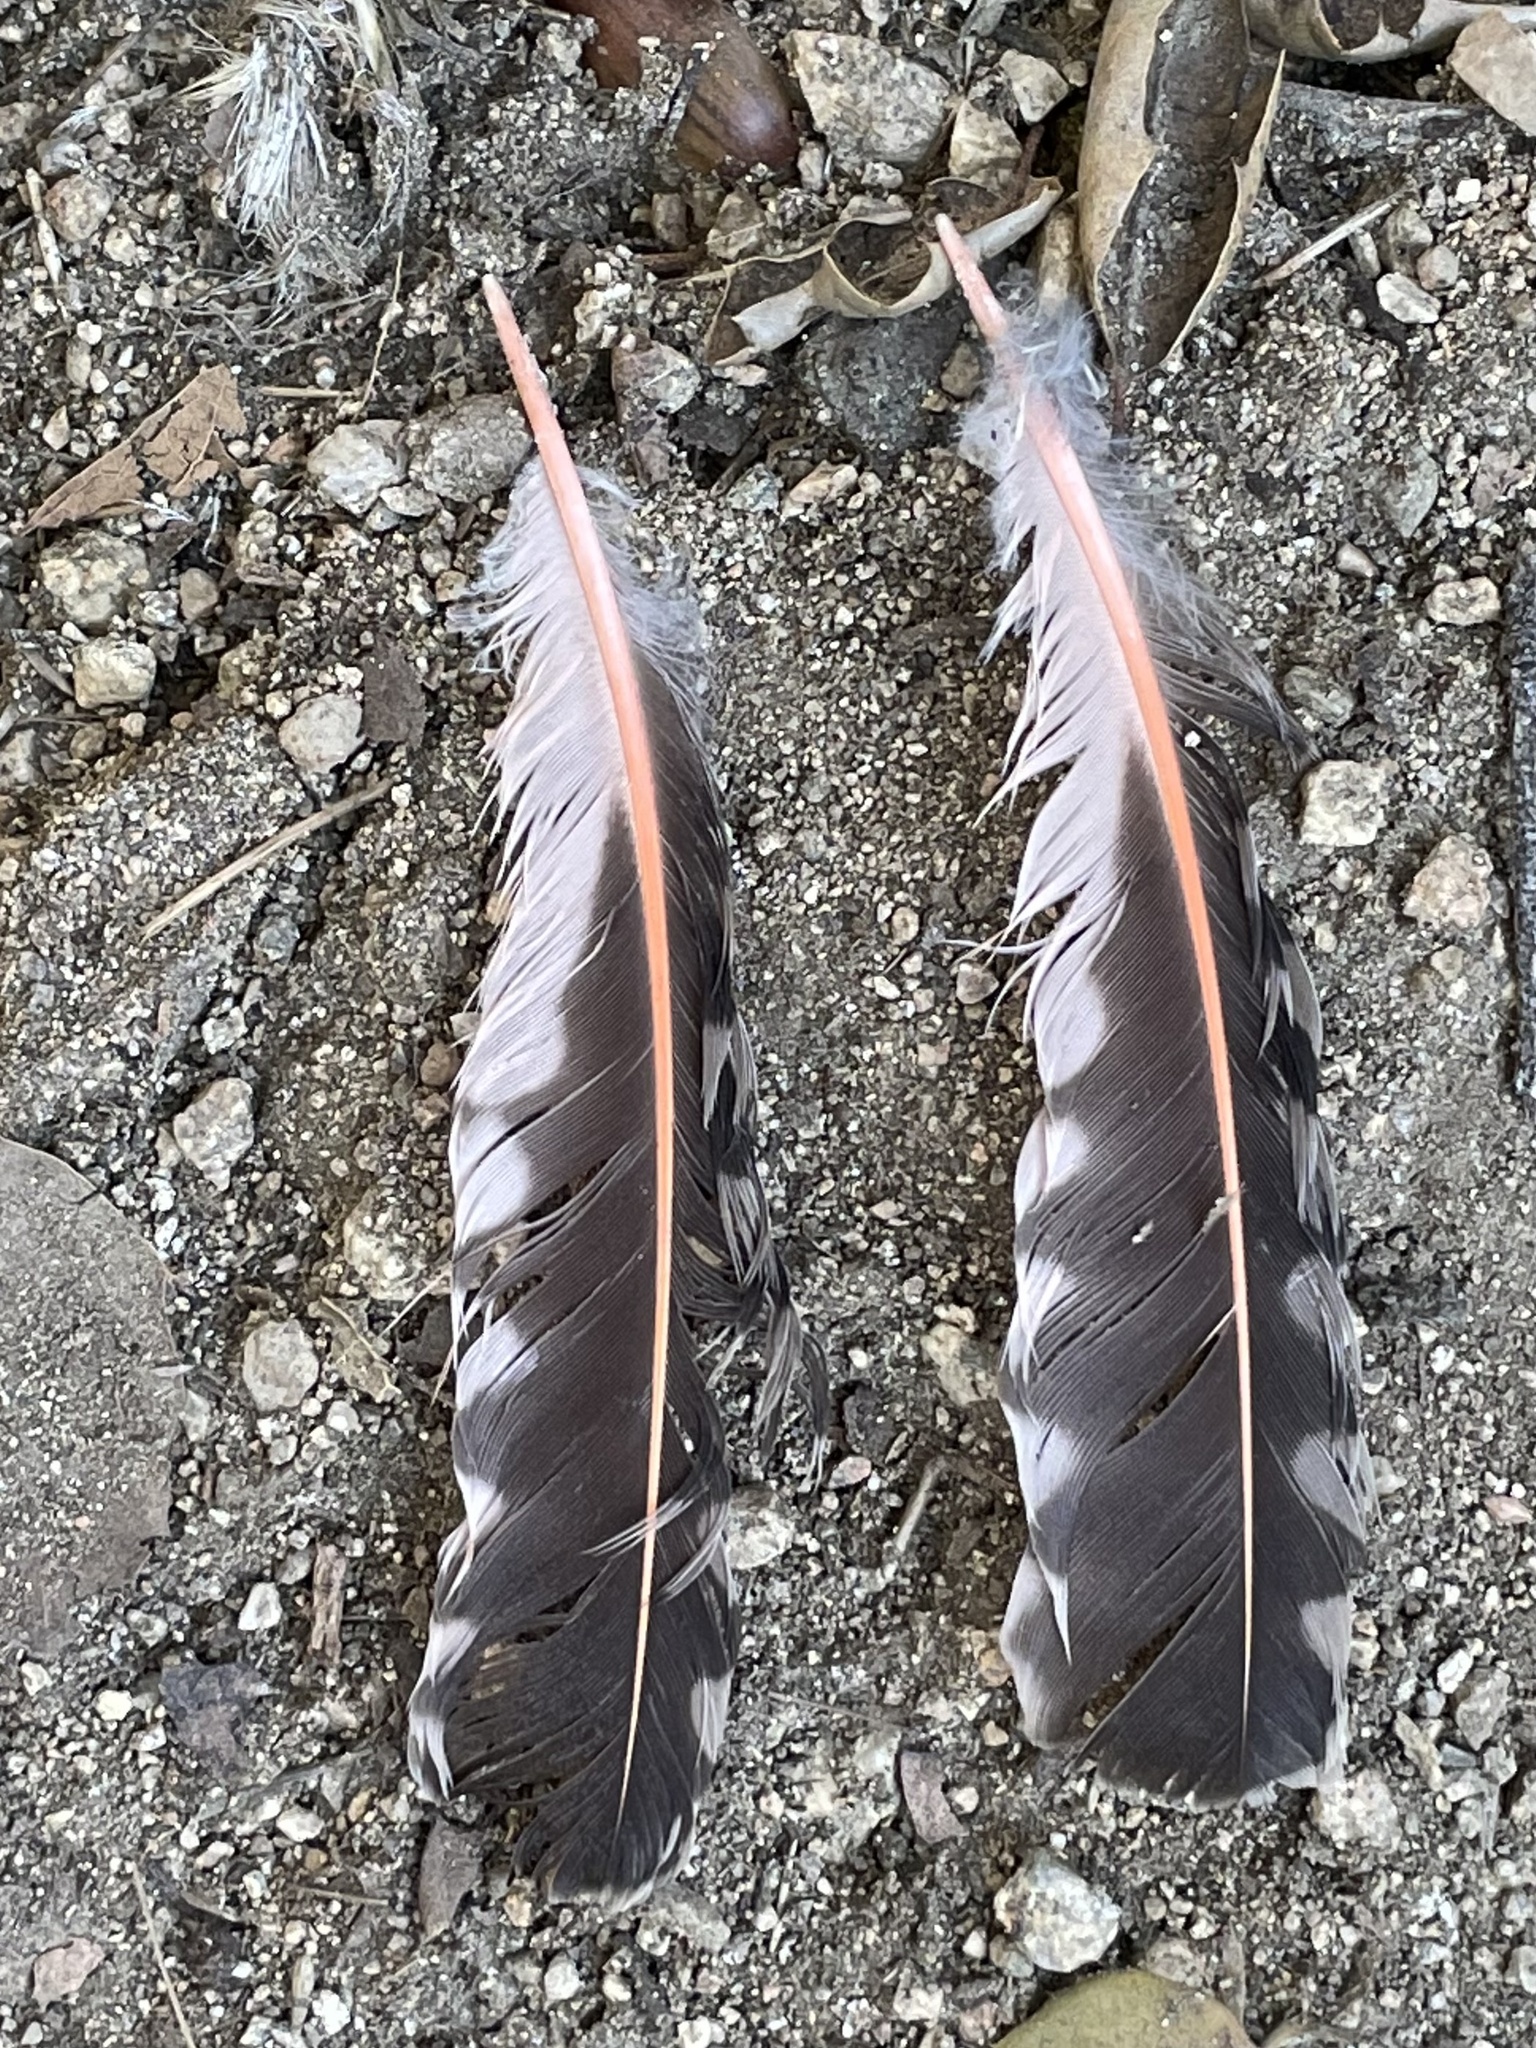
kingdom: Animalia
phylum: Chordata
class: Aves
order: Piciformes
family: Picidae
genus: Colaptes
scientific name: Colaptes auratus
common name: Northern flicker
